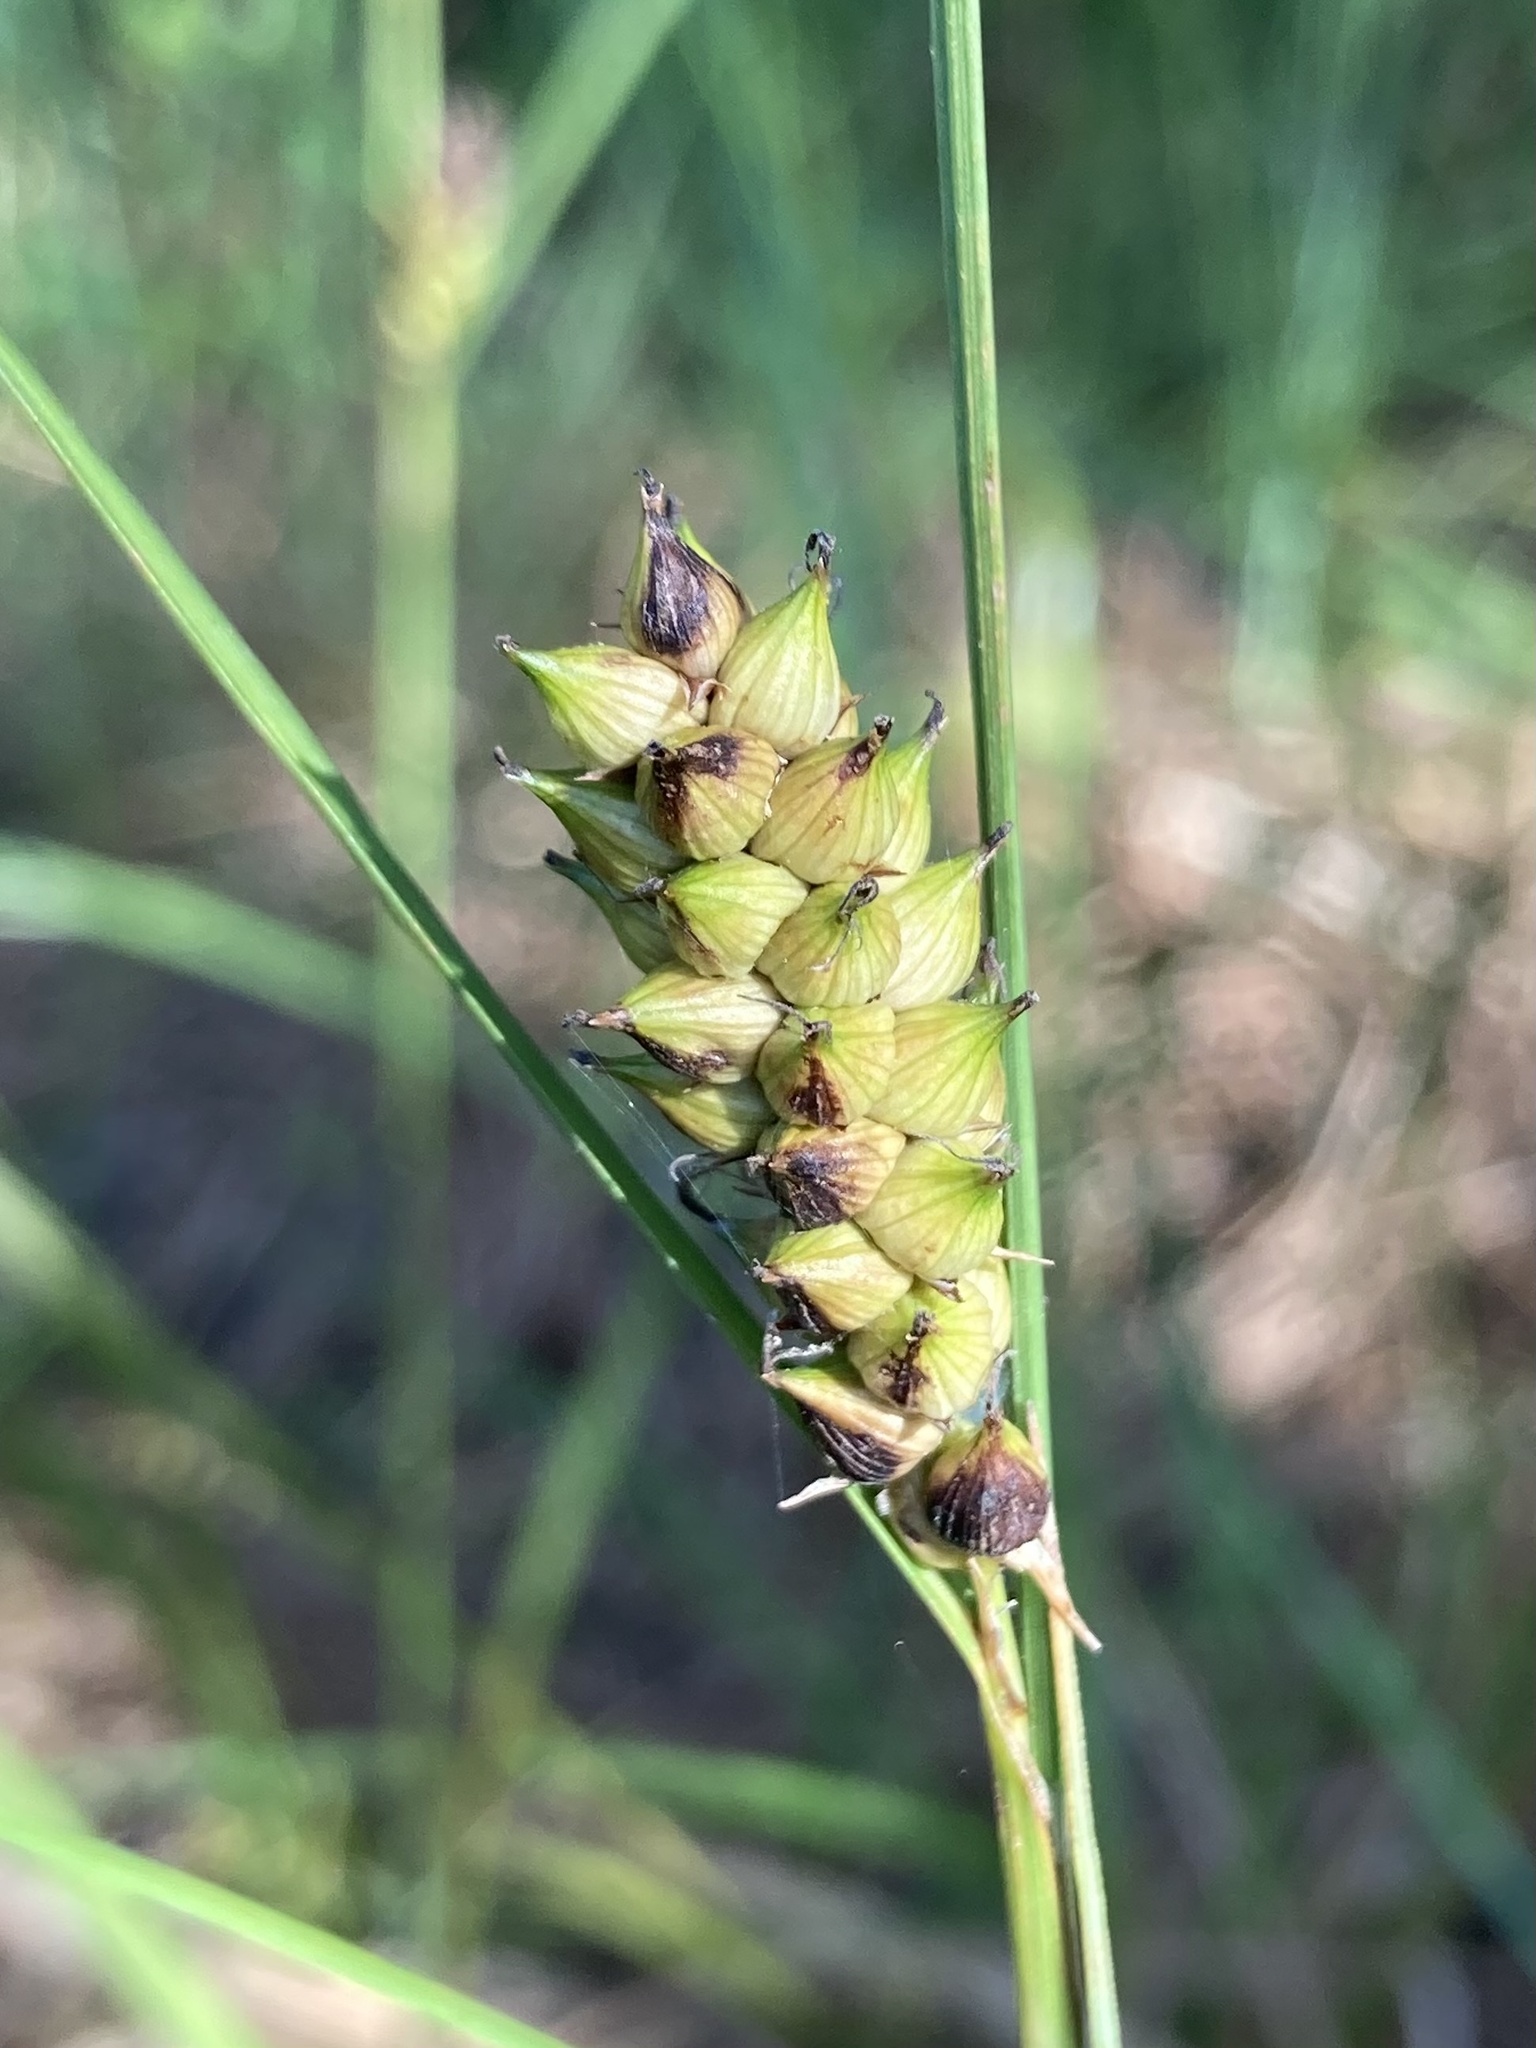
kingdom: Plantae
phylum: Tracheophyta
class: Liliopsida
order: Poales
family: Cyperaceae
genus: Carex
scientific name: Carex striata
